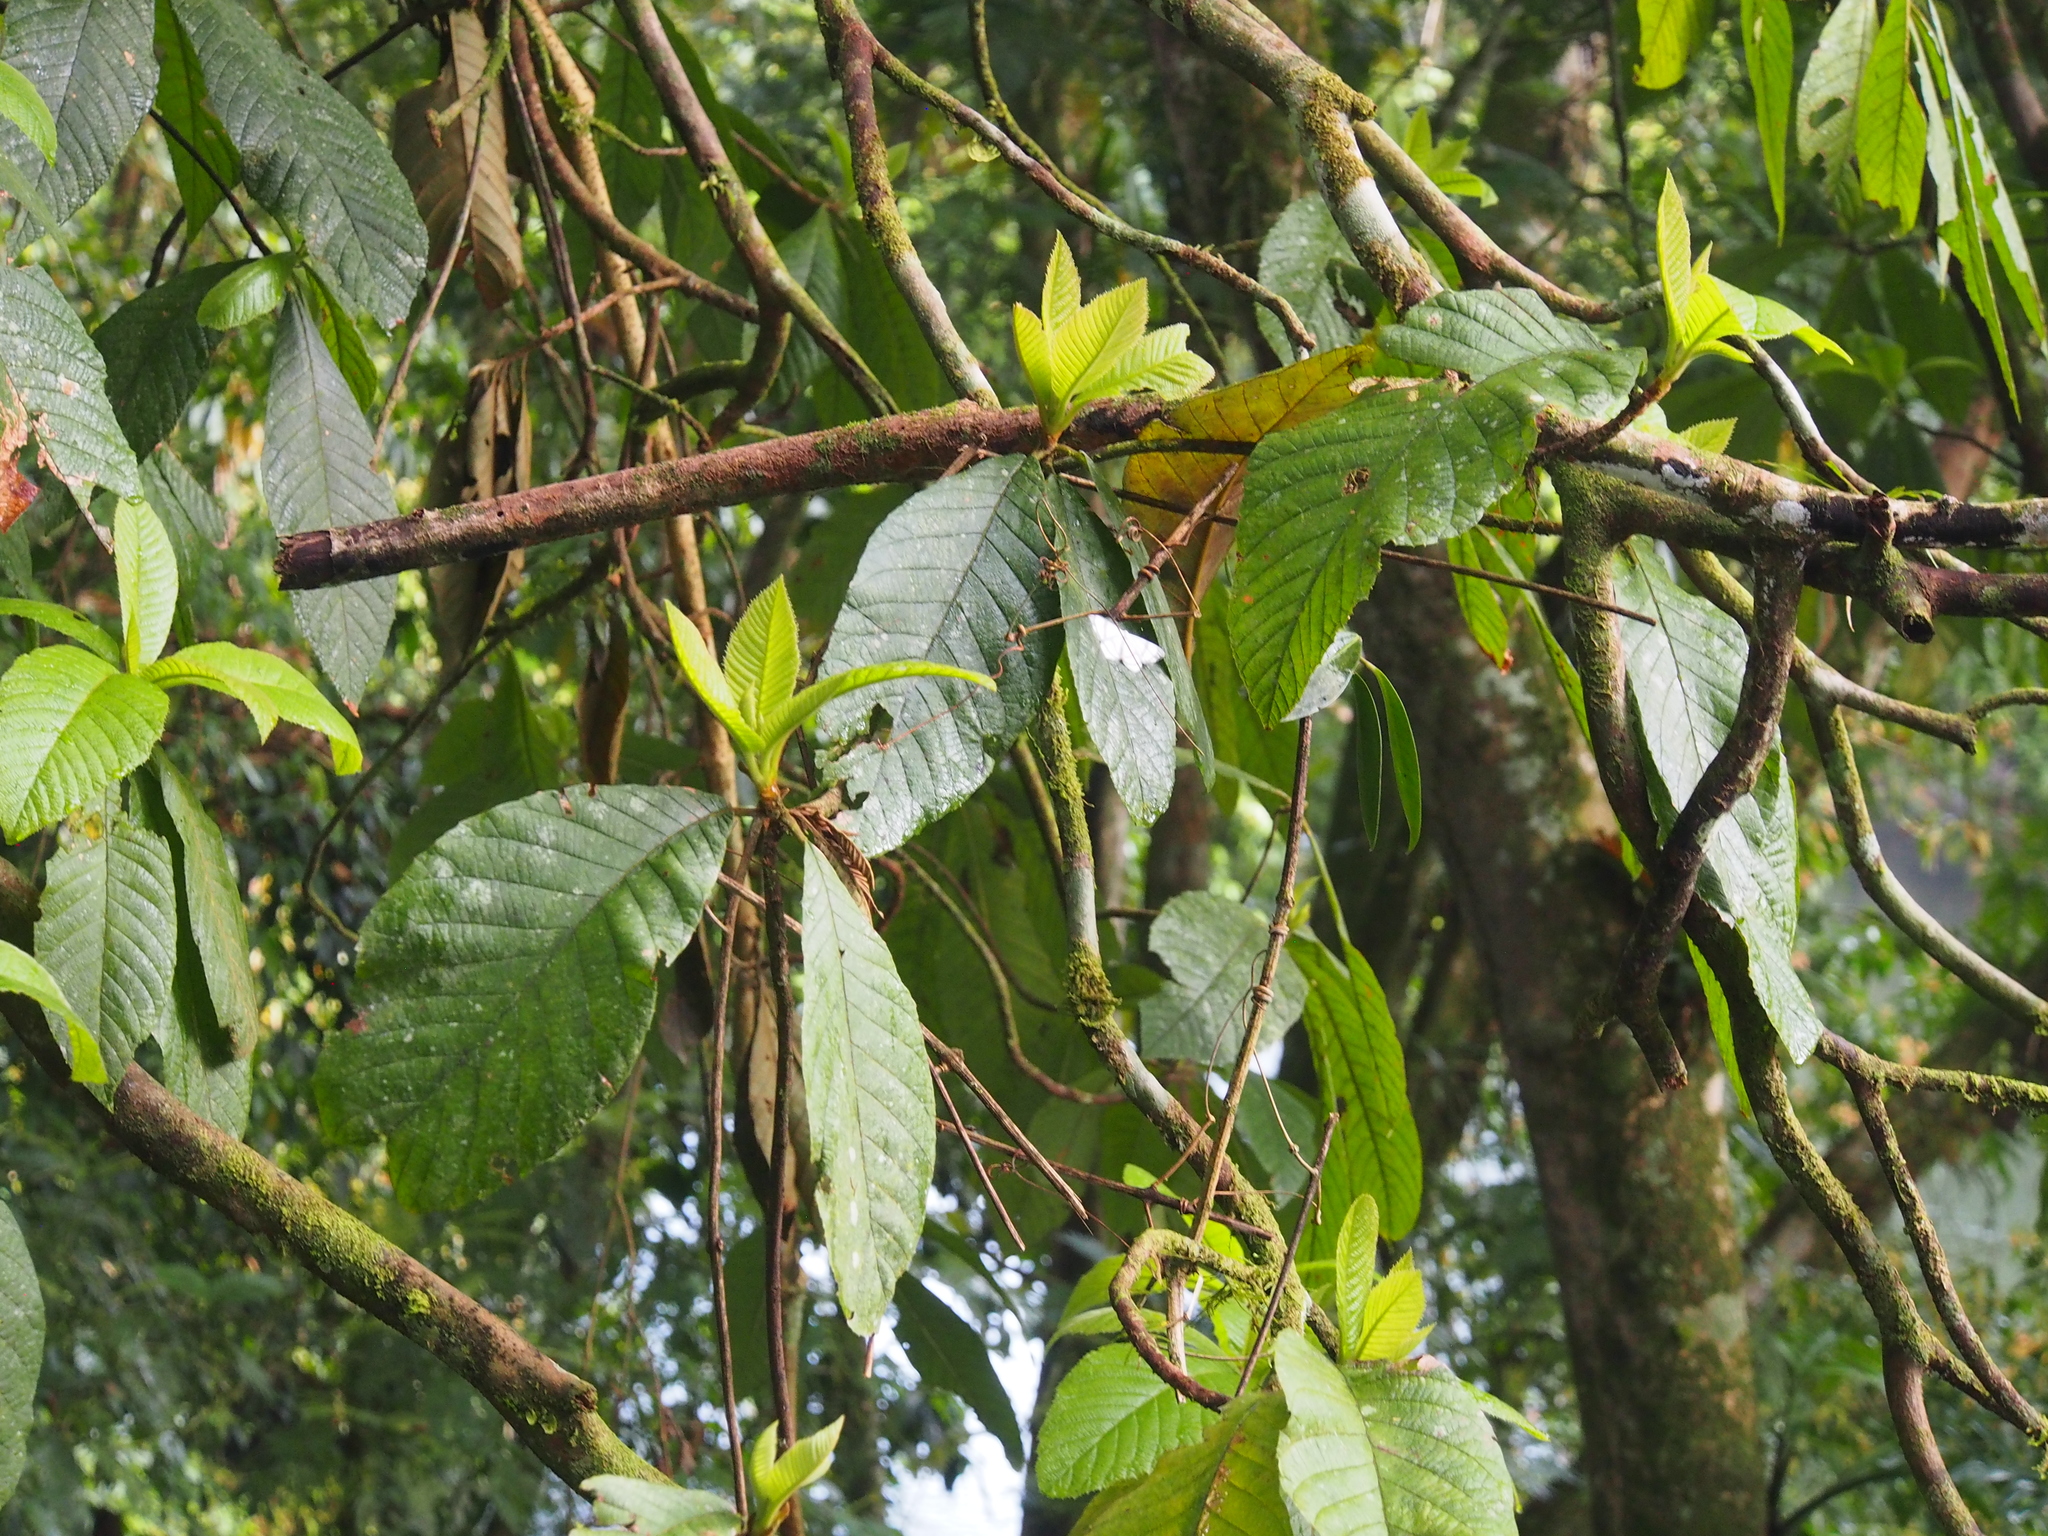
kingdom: Plantae
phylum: Tracheophyta
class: Magnoliopsida
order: Ericales
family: Clethraceae
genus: Clethra
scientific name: Clethra mexicana
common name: Nance macho
